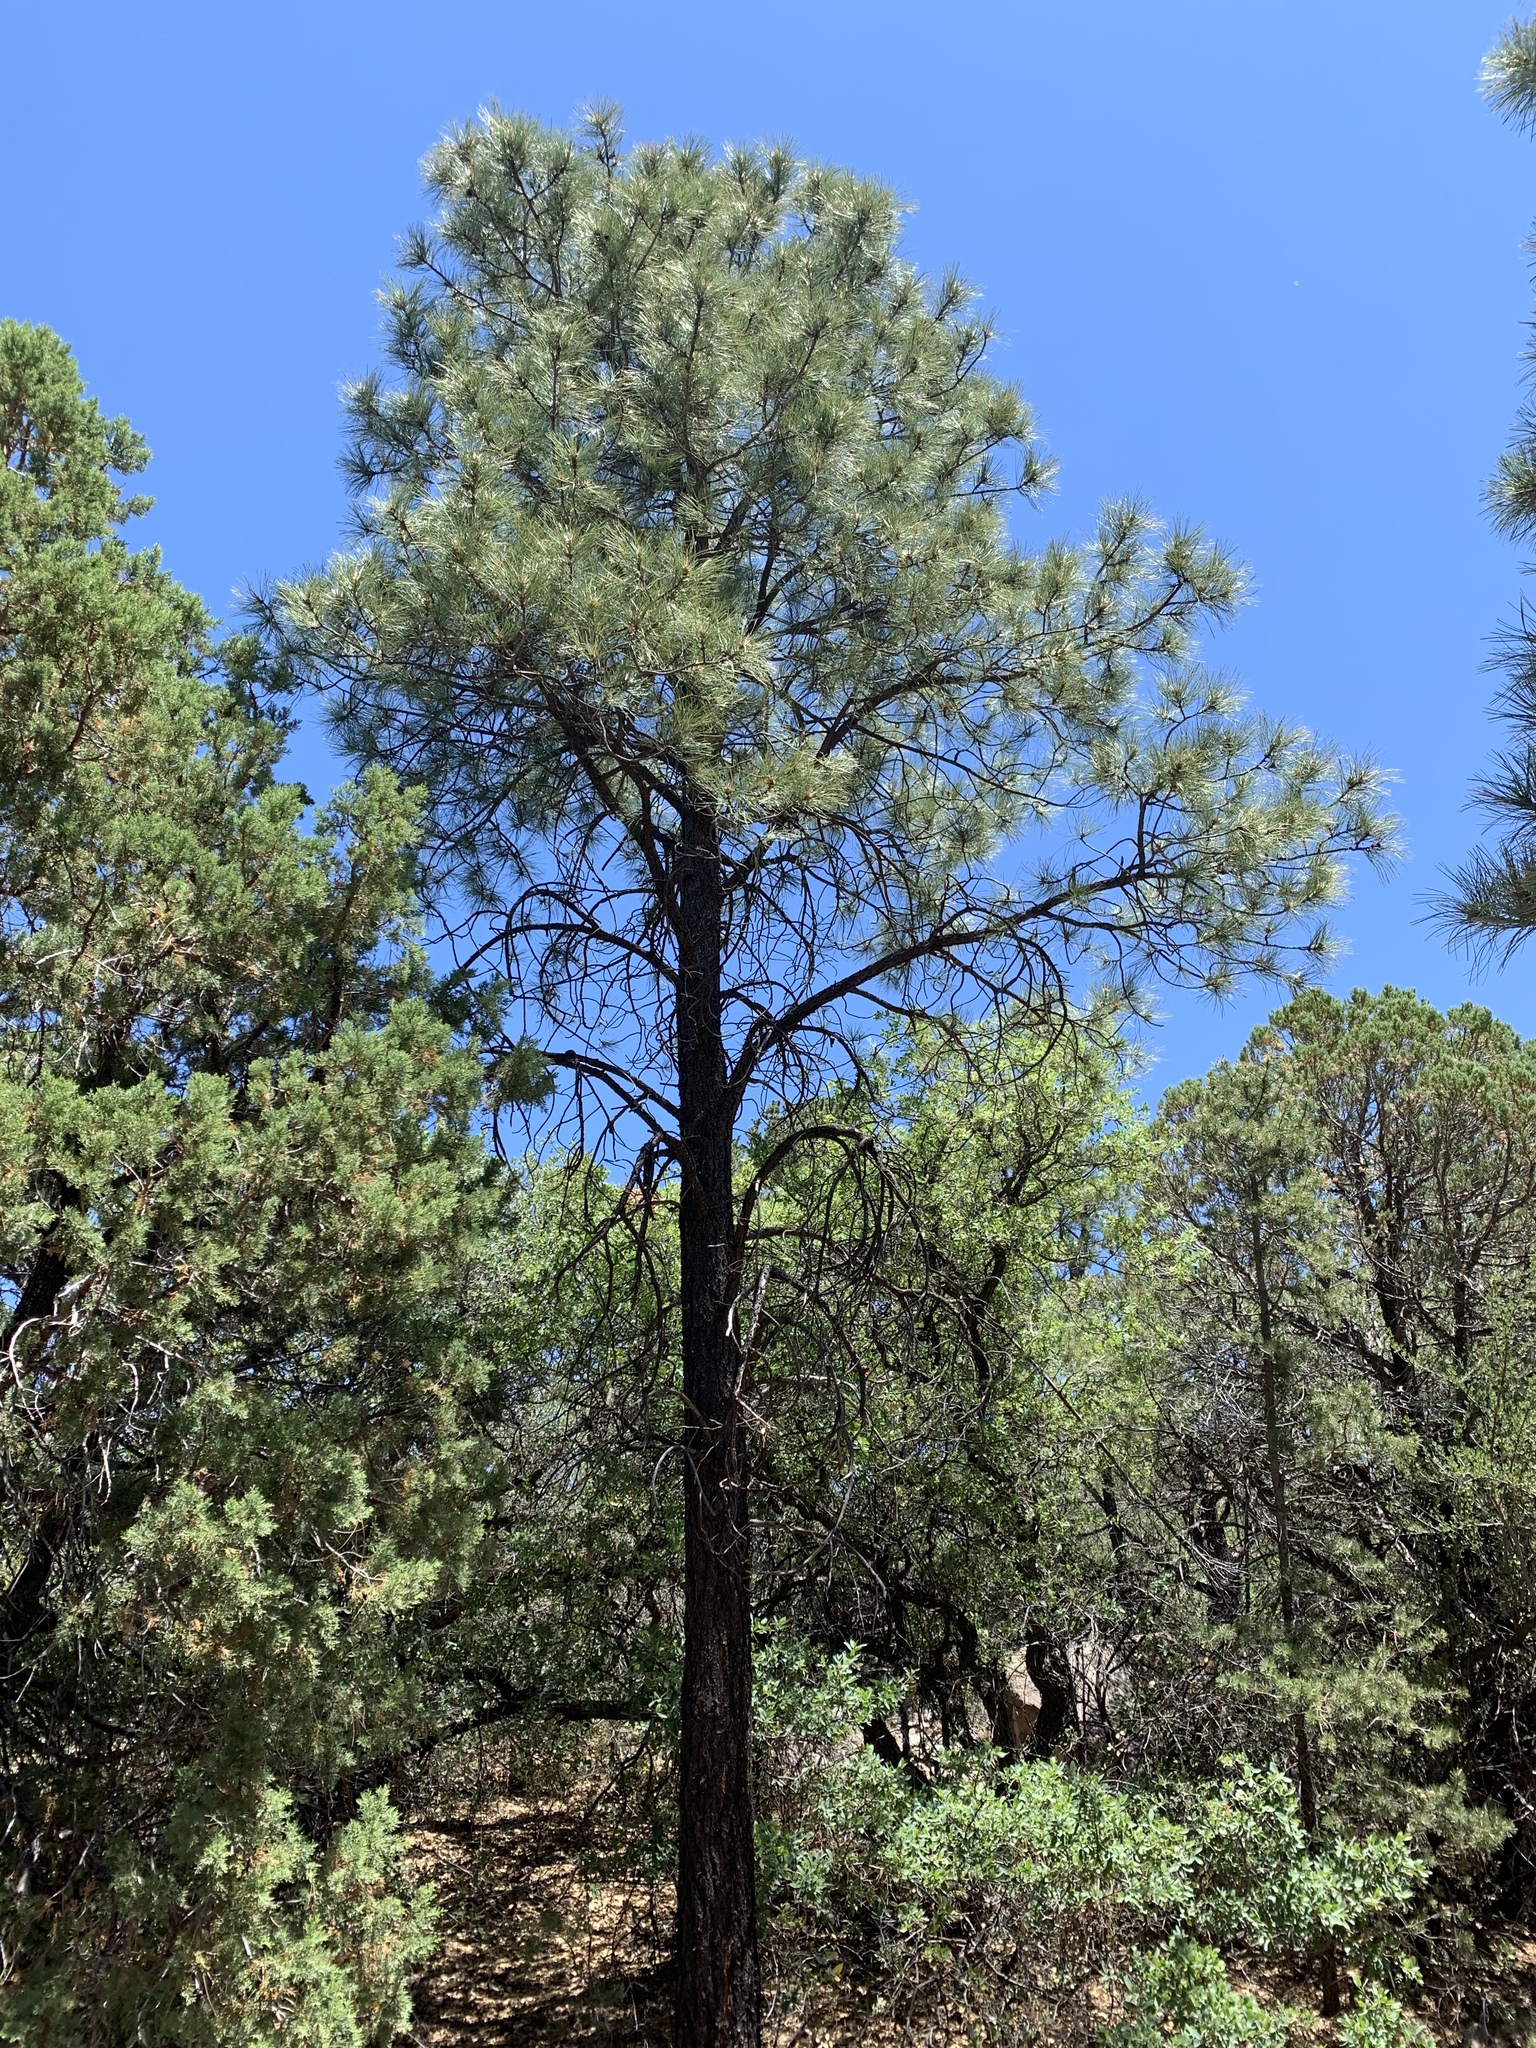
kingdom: Plantae
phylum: Tracheophyta
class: Pinopsida
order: Pinales
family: Pinaceae
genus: Pinus
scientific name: Pinus ponderosa
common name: Western yellow-pine
